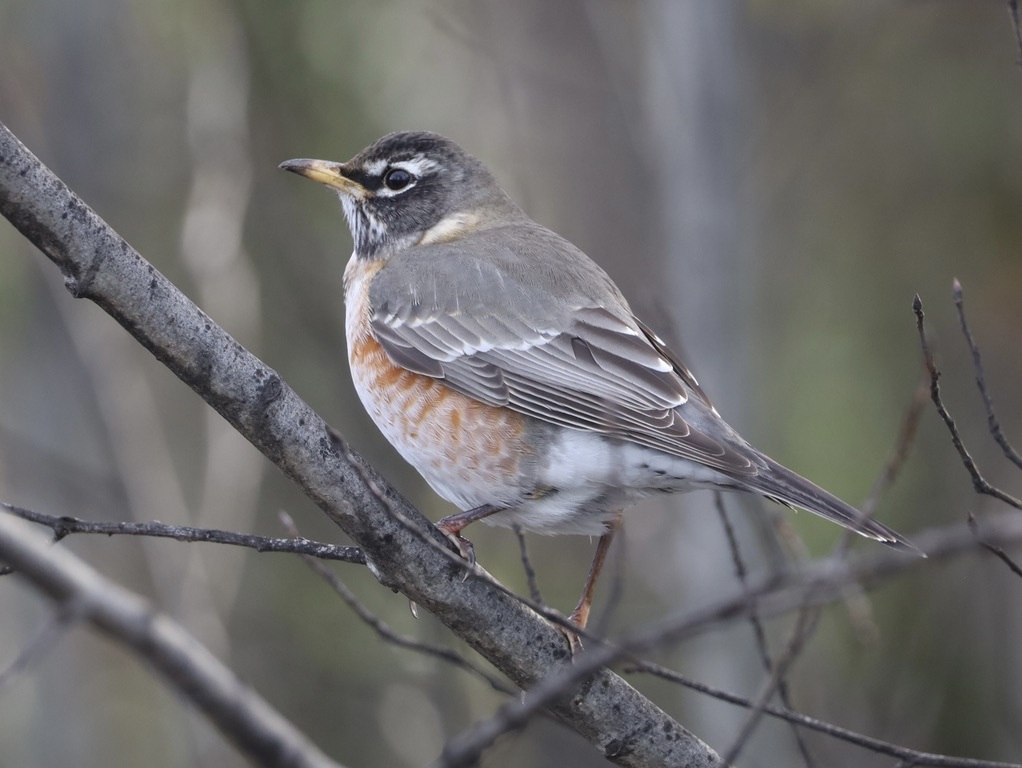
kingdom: Animalia
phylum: Chordata
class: Aves
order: Passeriformes
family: Turdidae
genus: Turdus
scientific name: Turdus migratorius
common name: American robin
